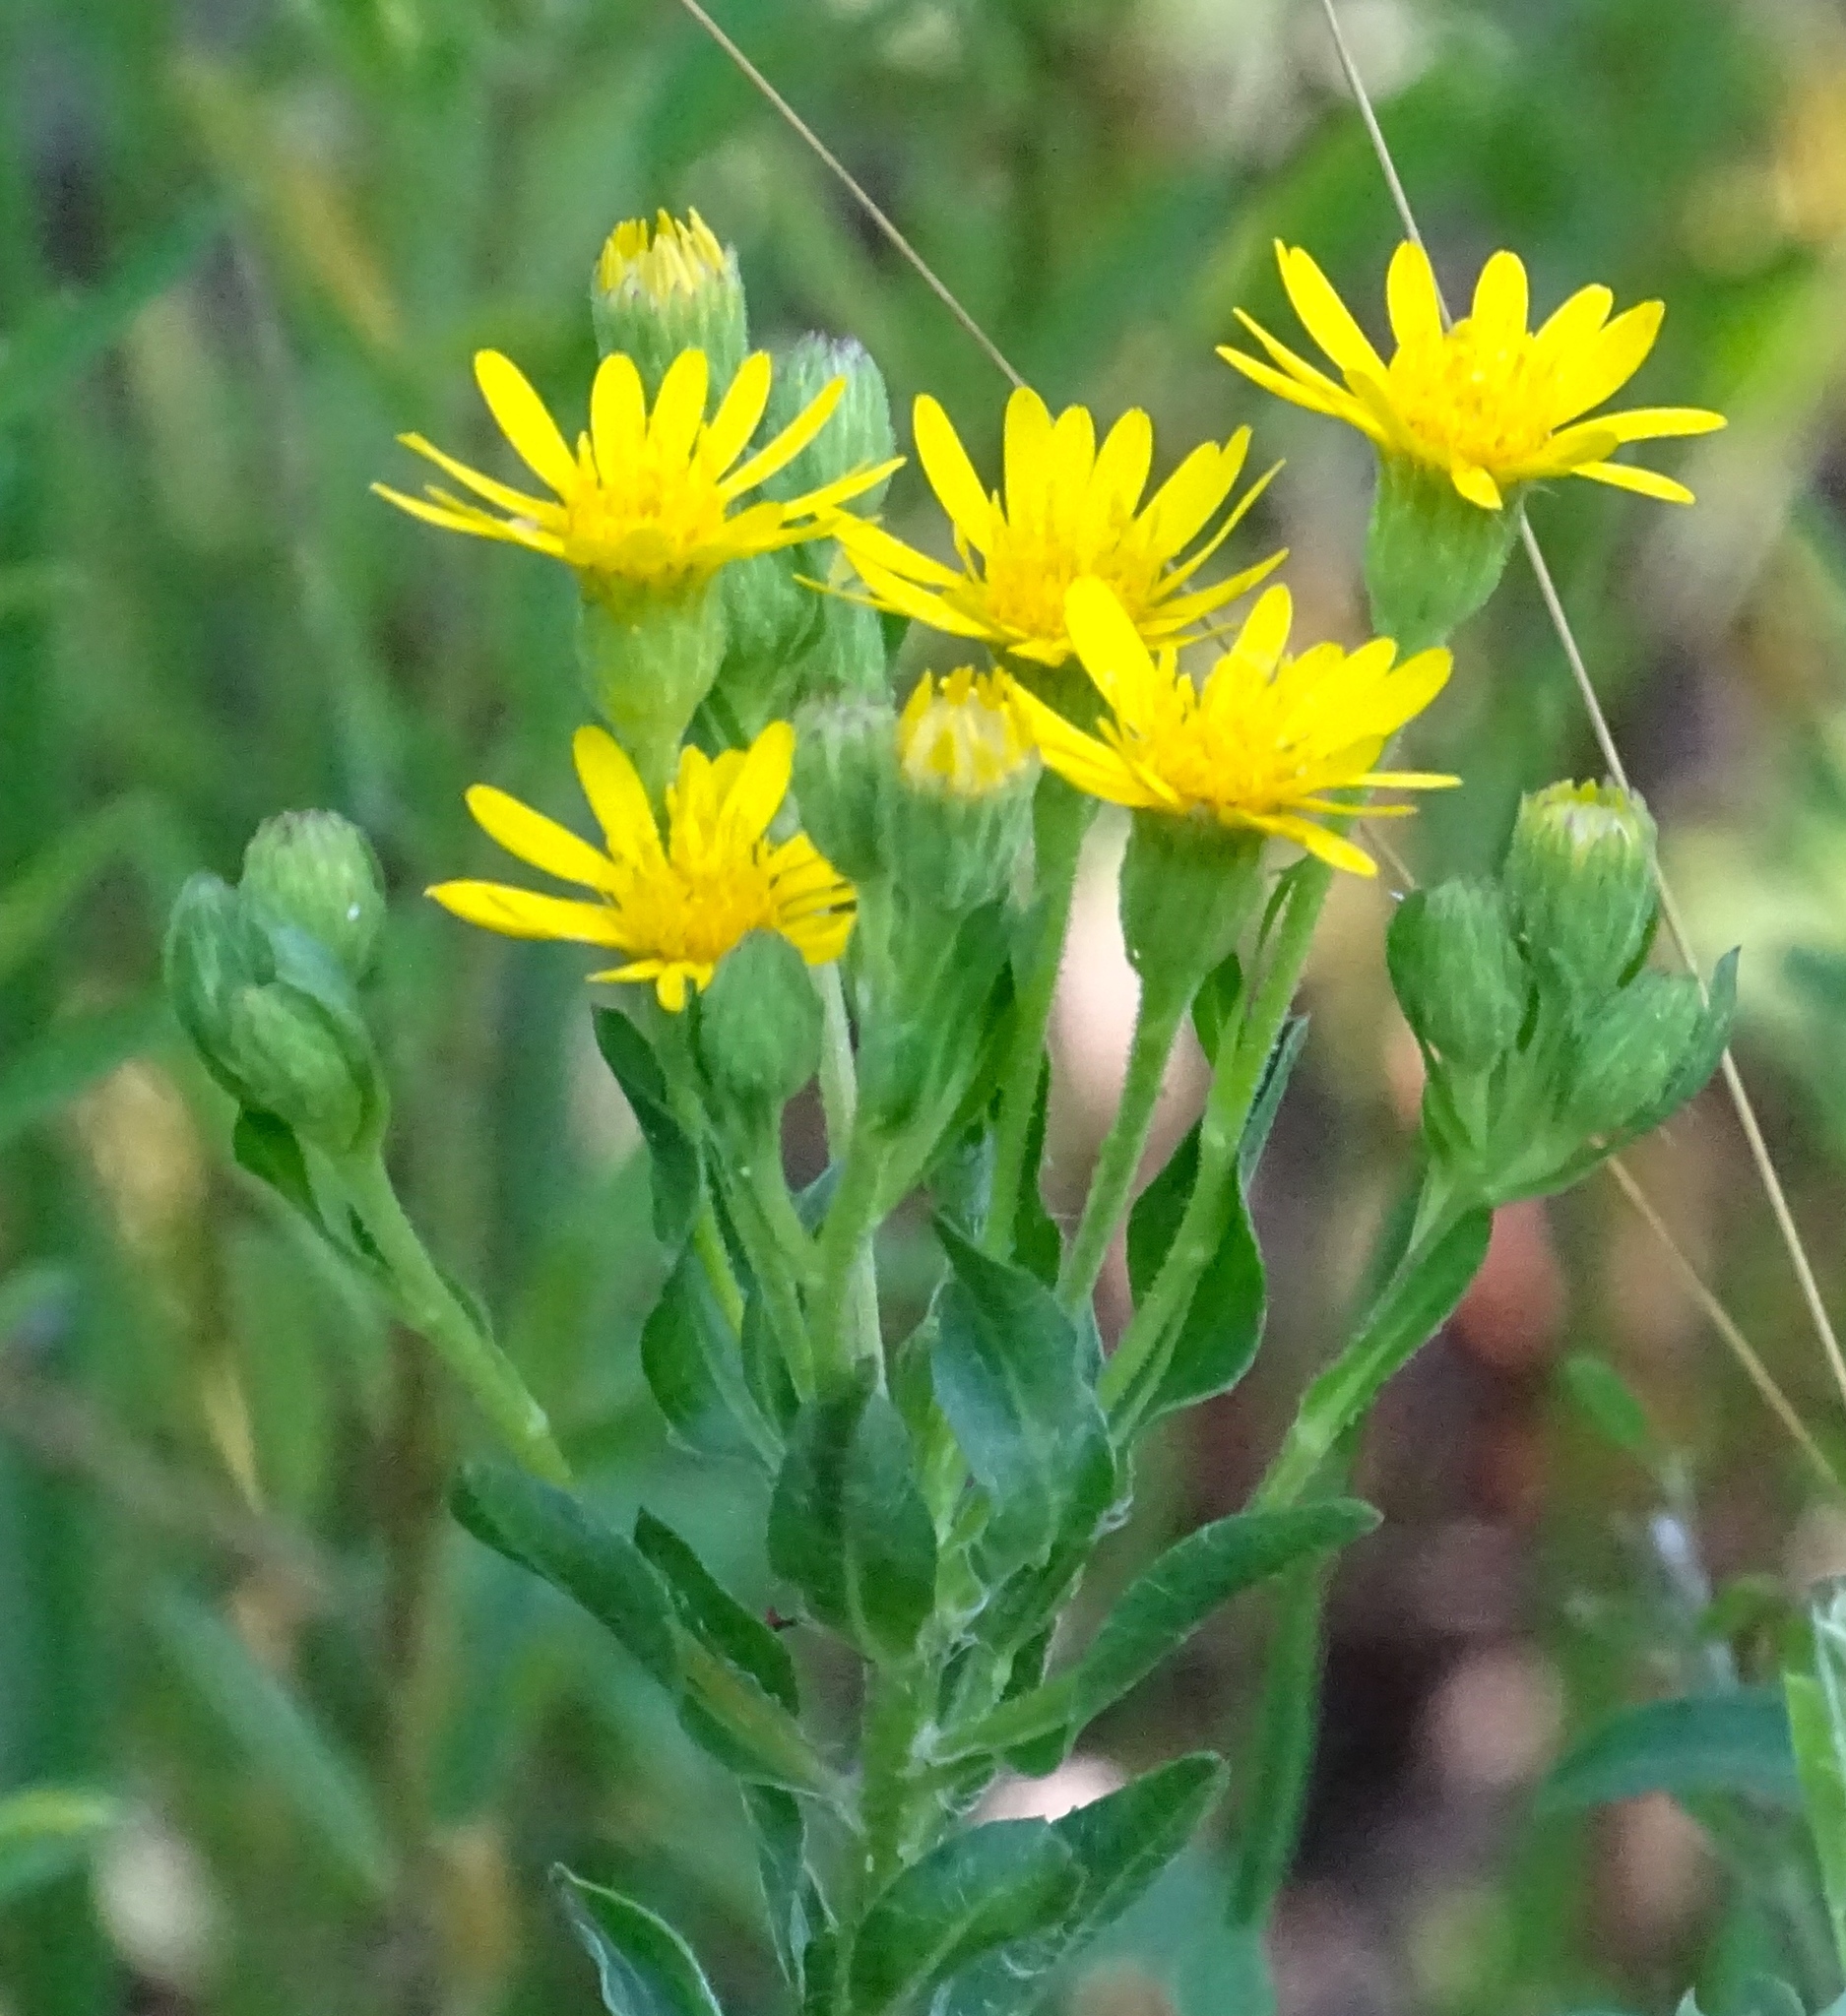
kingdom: Plantae
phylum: Tracheophyta
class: Magnoliopsida
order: Asterales
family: Asteraceae
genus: Chrysopsis
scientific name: Chrysopsis mariana
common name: Maryland golden-aster
